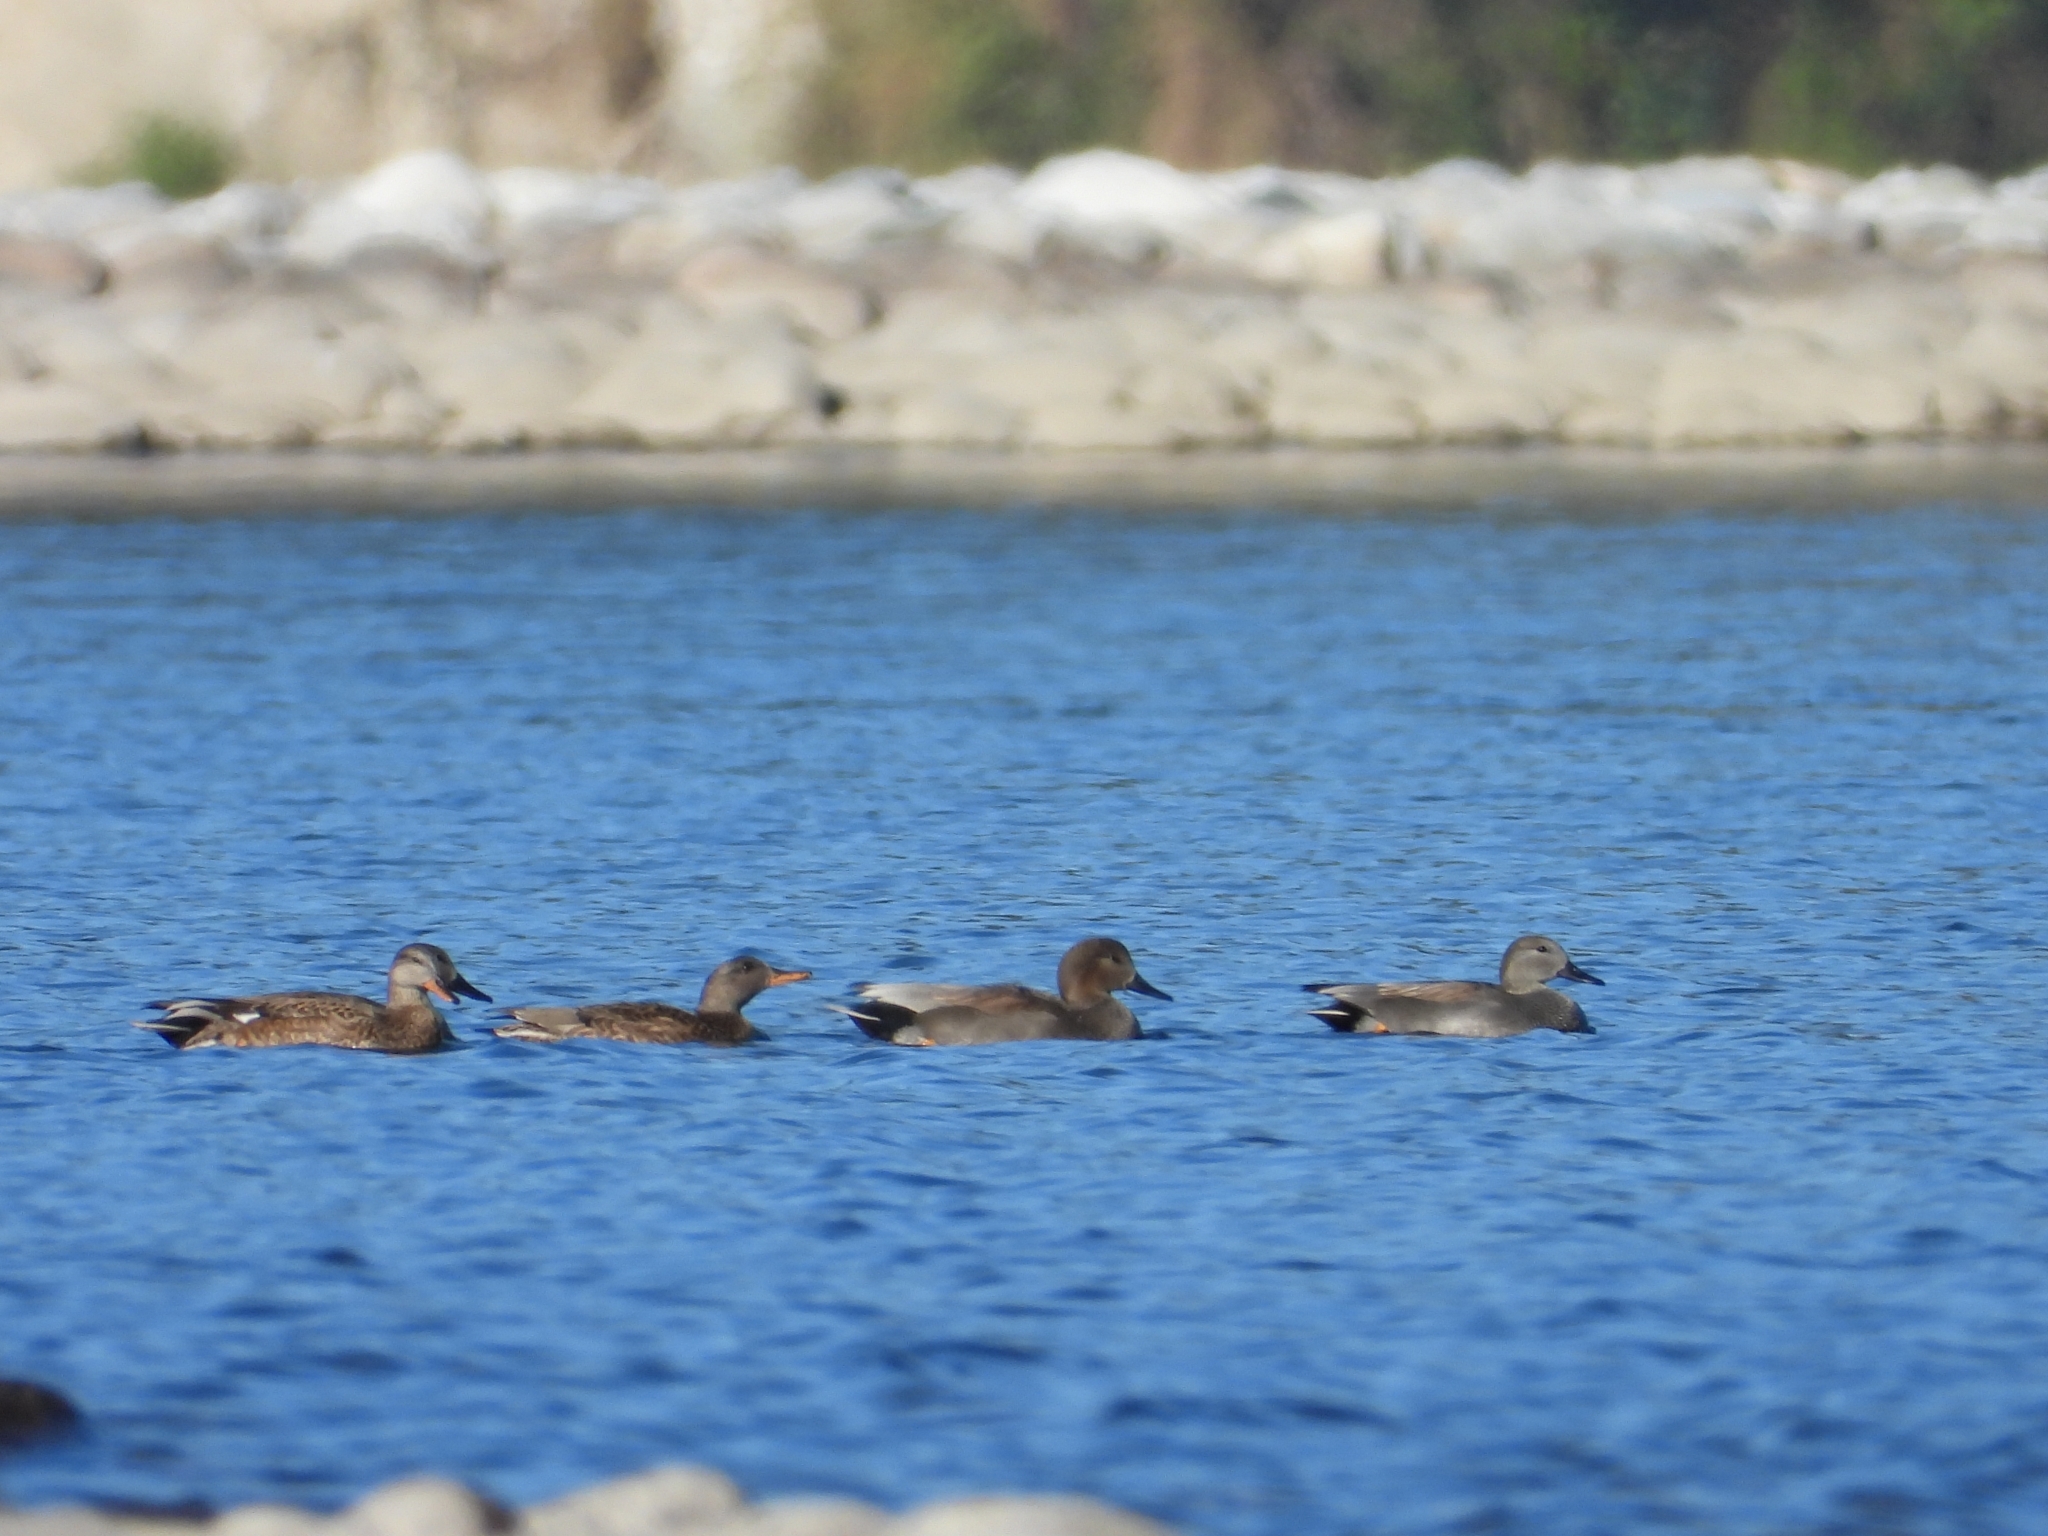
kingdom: Animalia
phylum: Chordata
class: Aves
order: Anseriformes
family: Anatidae
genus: Mareca
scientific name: Mareca strepera
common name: Gadwall
